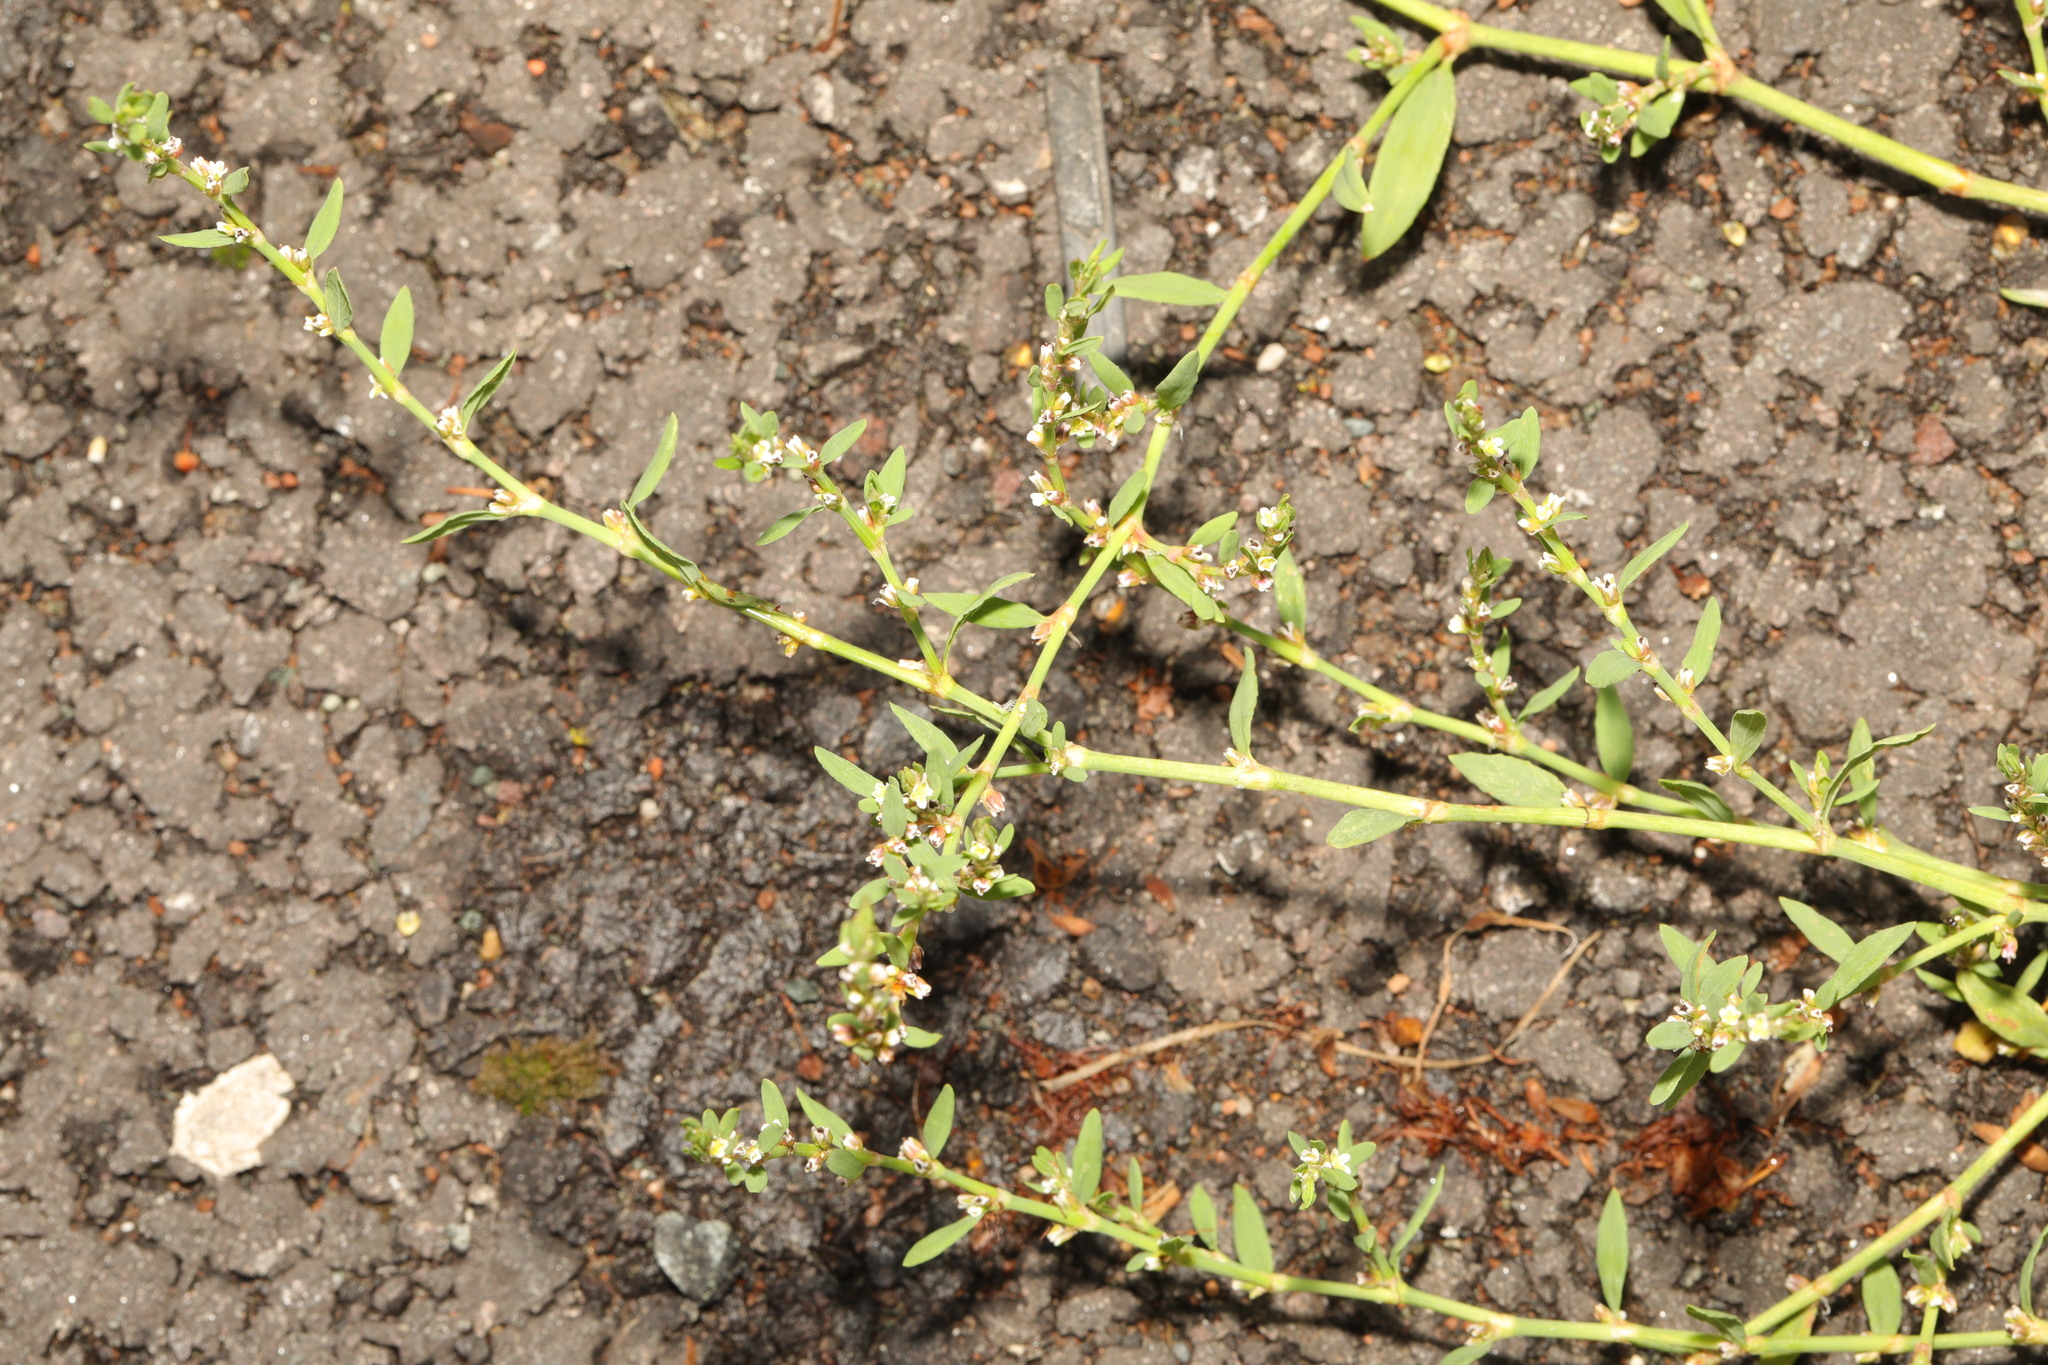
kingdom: Plantae
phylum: Tracheophyta
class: Magnoliopsida
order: Caryophyllales
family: Polygonaceae
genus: Polygonum
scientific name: Polygonum aviculare
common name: Prostrate knotweed
